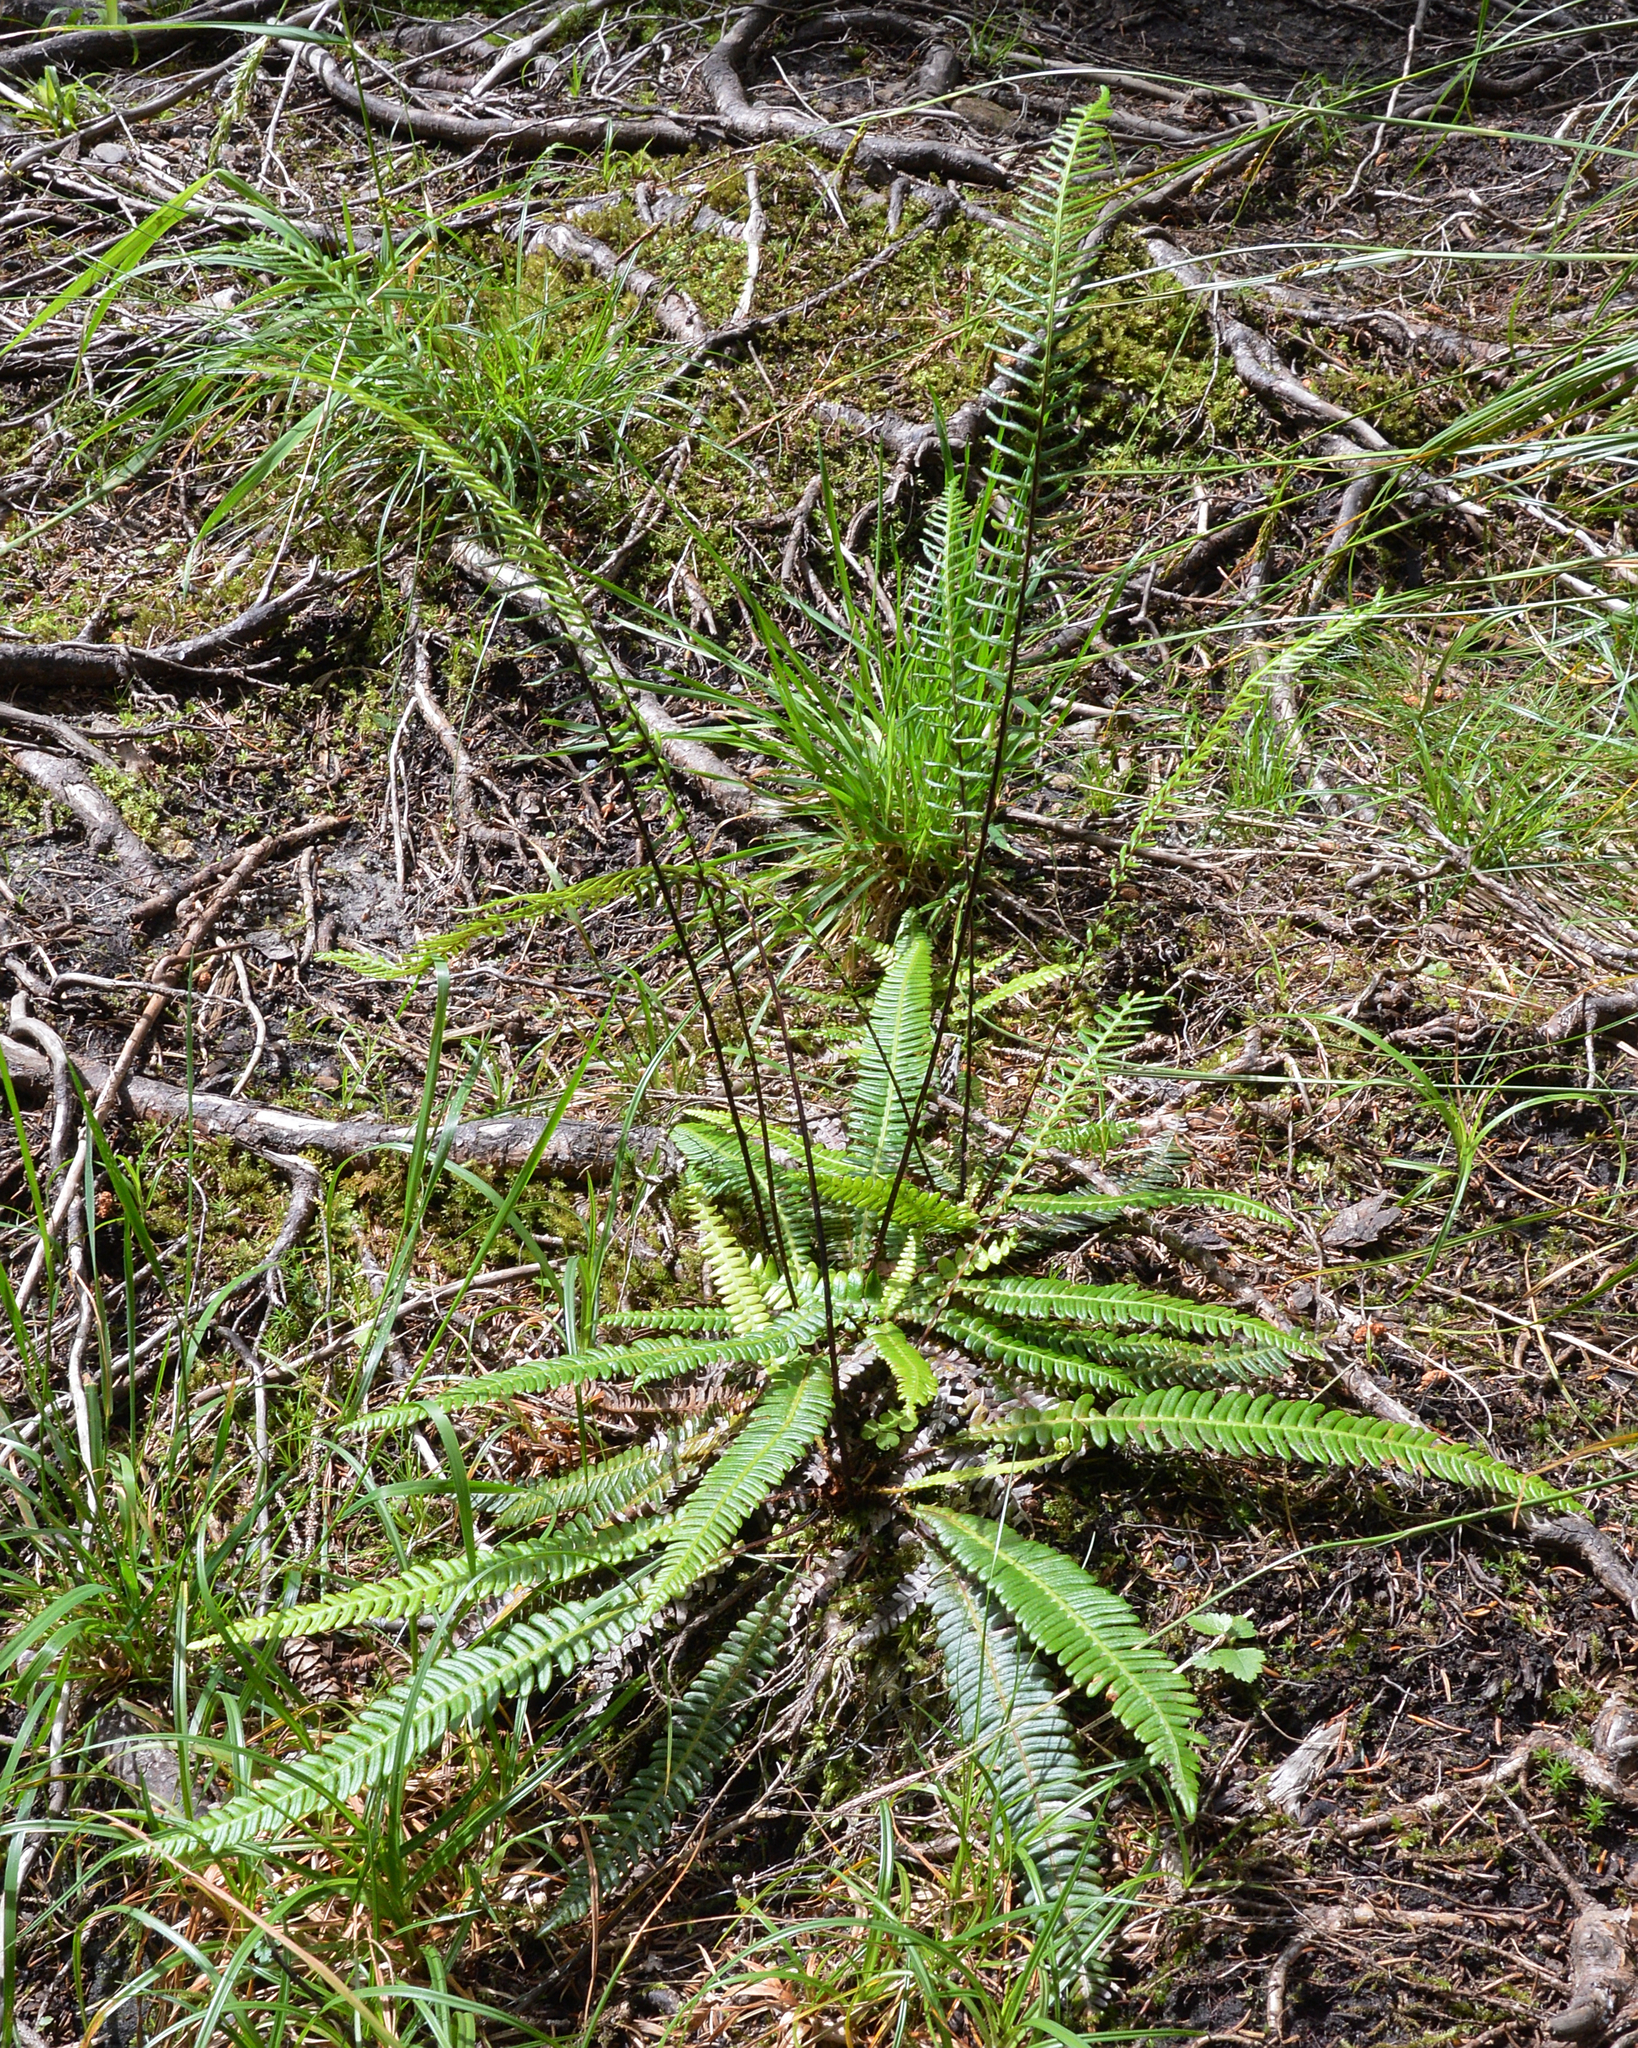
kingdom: Plantae
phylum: Tracheophyta
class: Polypodiopsida
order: Polypodiales
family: Blechnaceae
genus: Struthiopteris
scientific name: Struthiopteris spicant
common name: Deer fern
